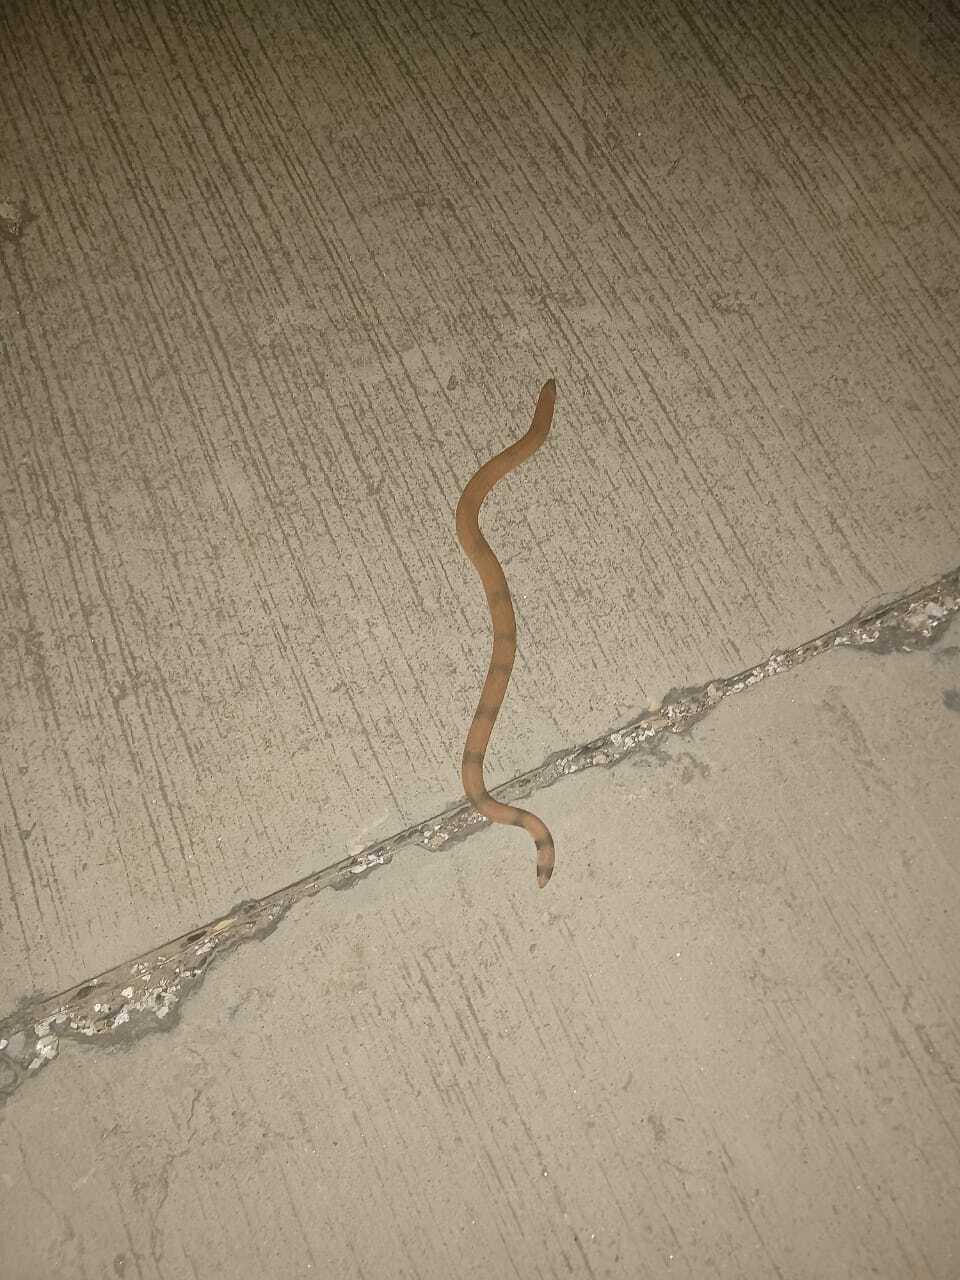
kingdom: Animalia
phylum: Chordata
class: Squamata
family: Boidae
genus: Eryx
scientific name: Eryx johnii
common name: Brown sand boa
